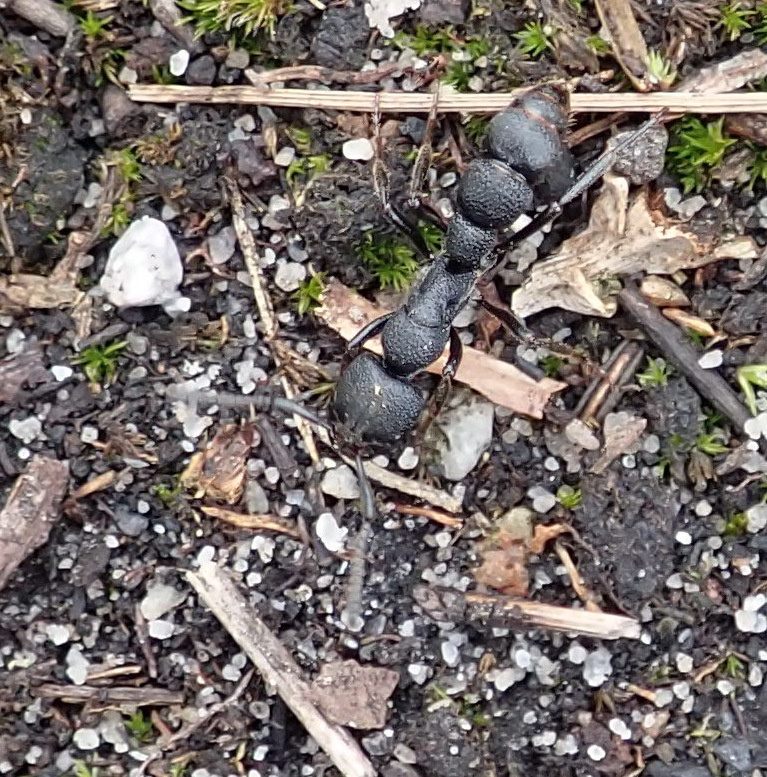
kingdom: Animalia
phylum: Arthropoda
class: Insecta
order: Hymenoptera
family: Formicidae
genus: Bothroponera
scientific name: Bothroponera cariosa
